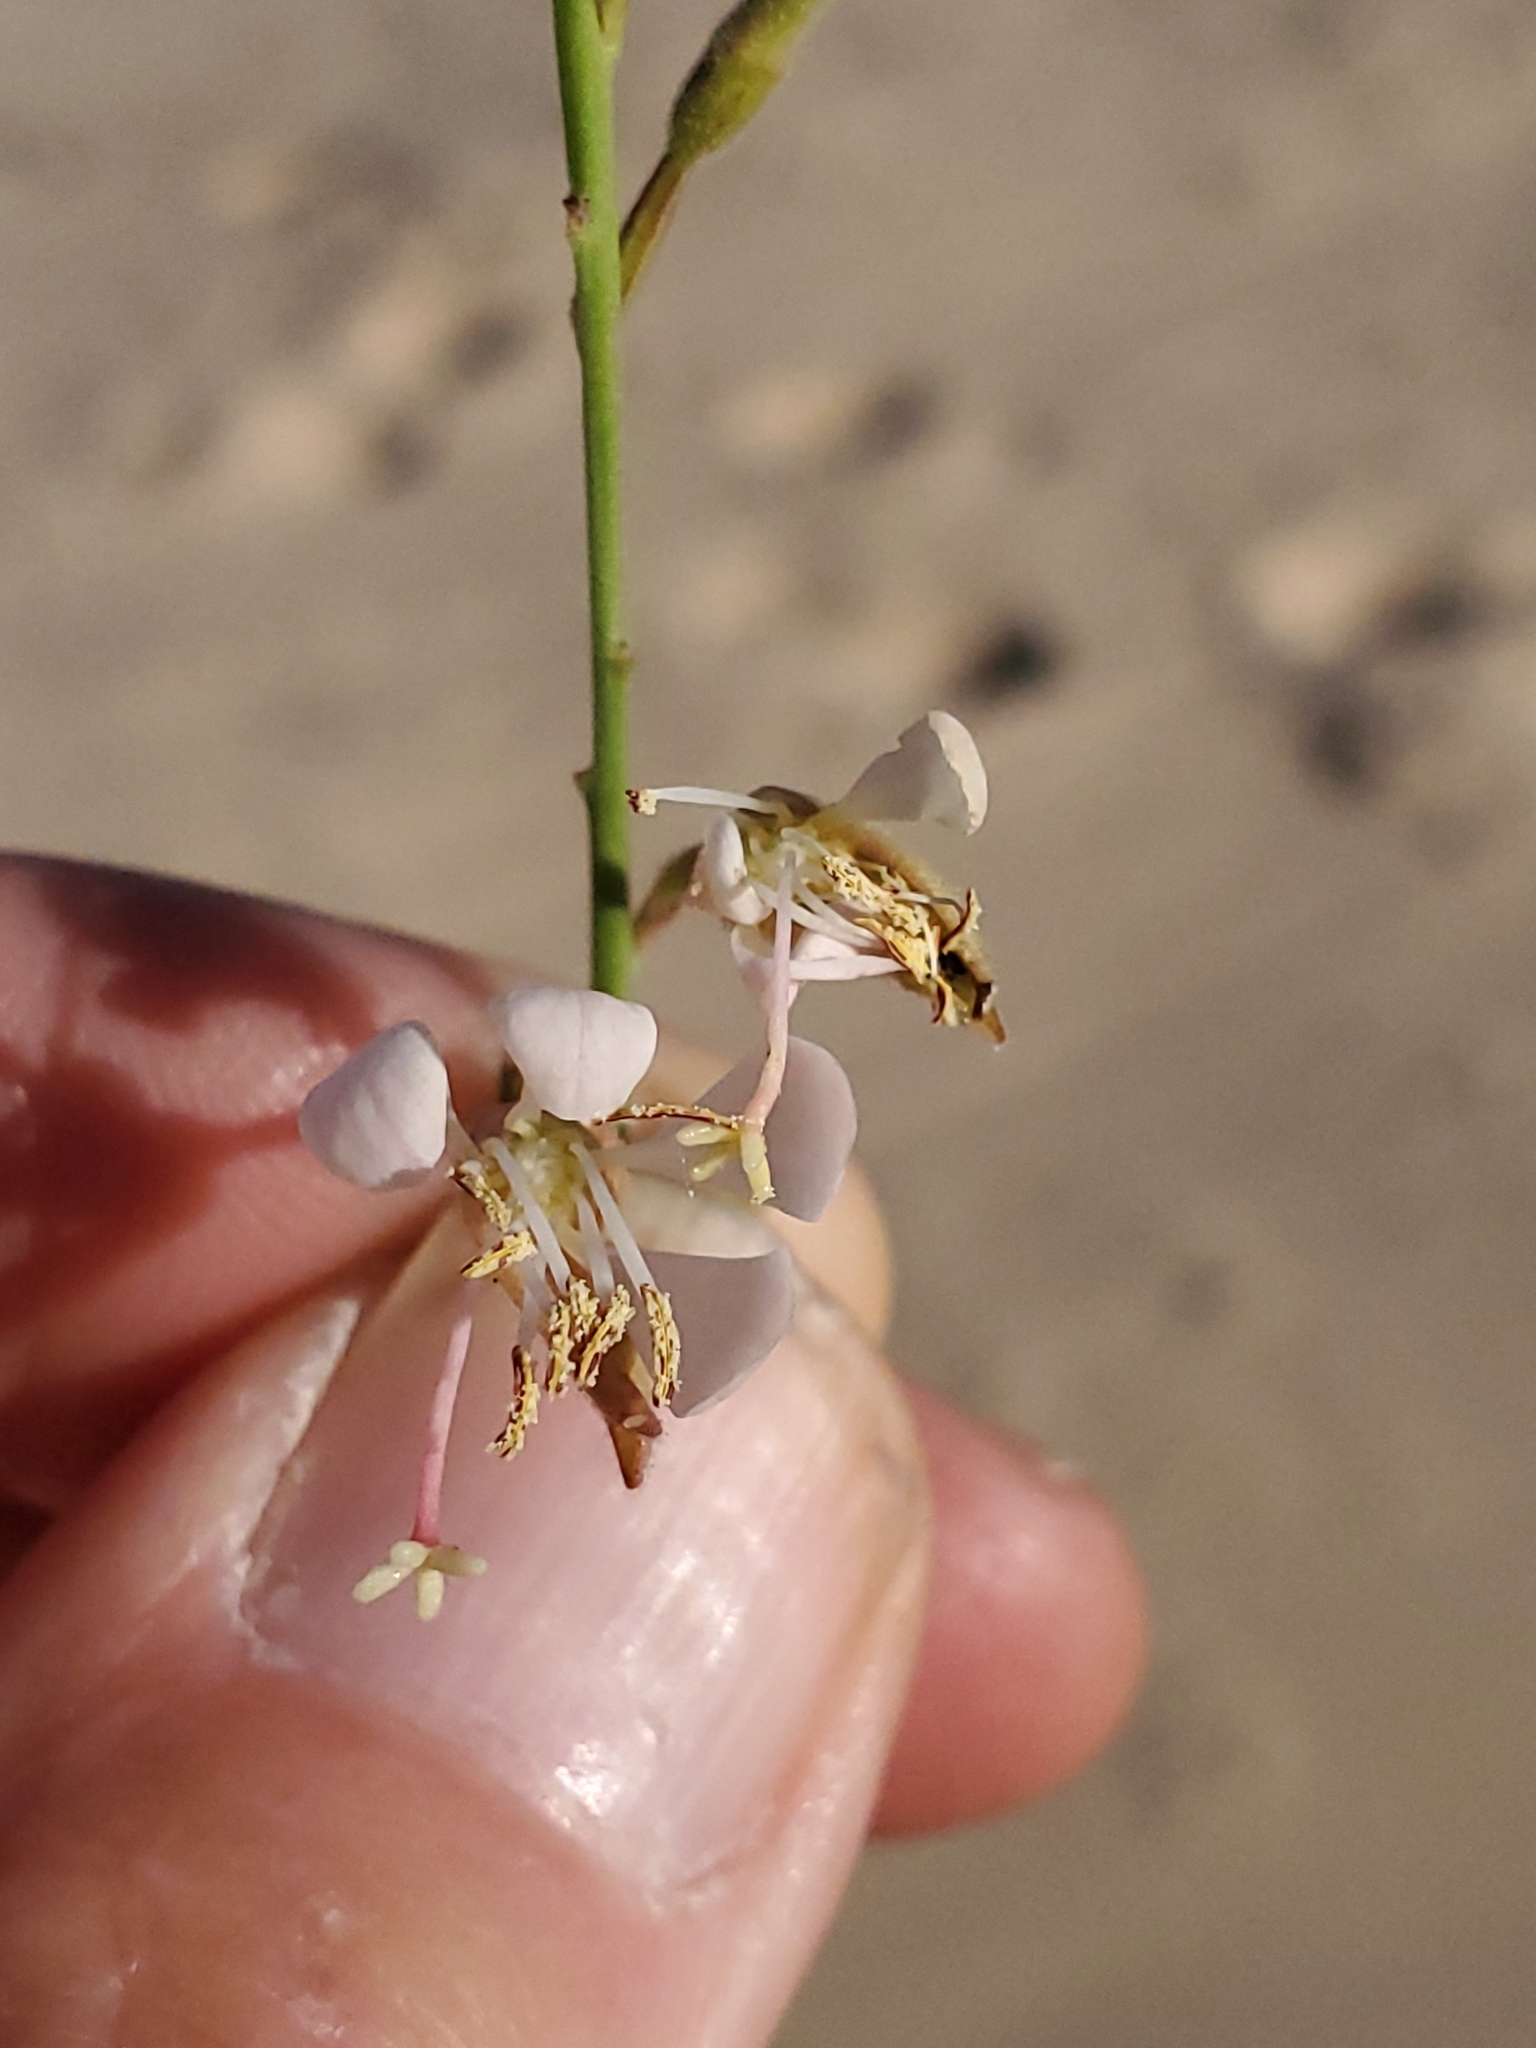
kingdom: Plantae
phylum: Tracheophyta
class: Magnoliopsida
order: Myrtales
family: Onagraceae
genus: Oenothera
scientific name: Oenothera cinerea
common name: Woolly beeblossom
